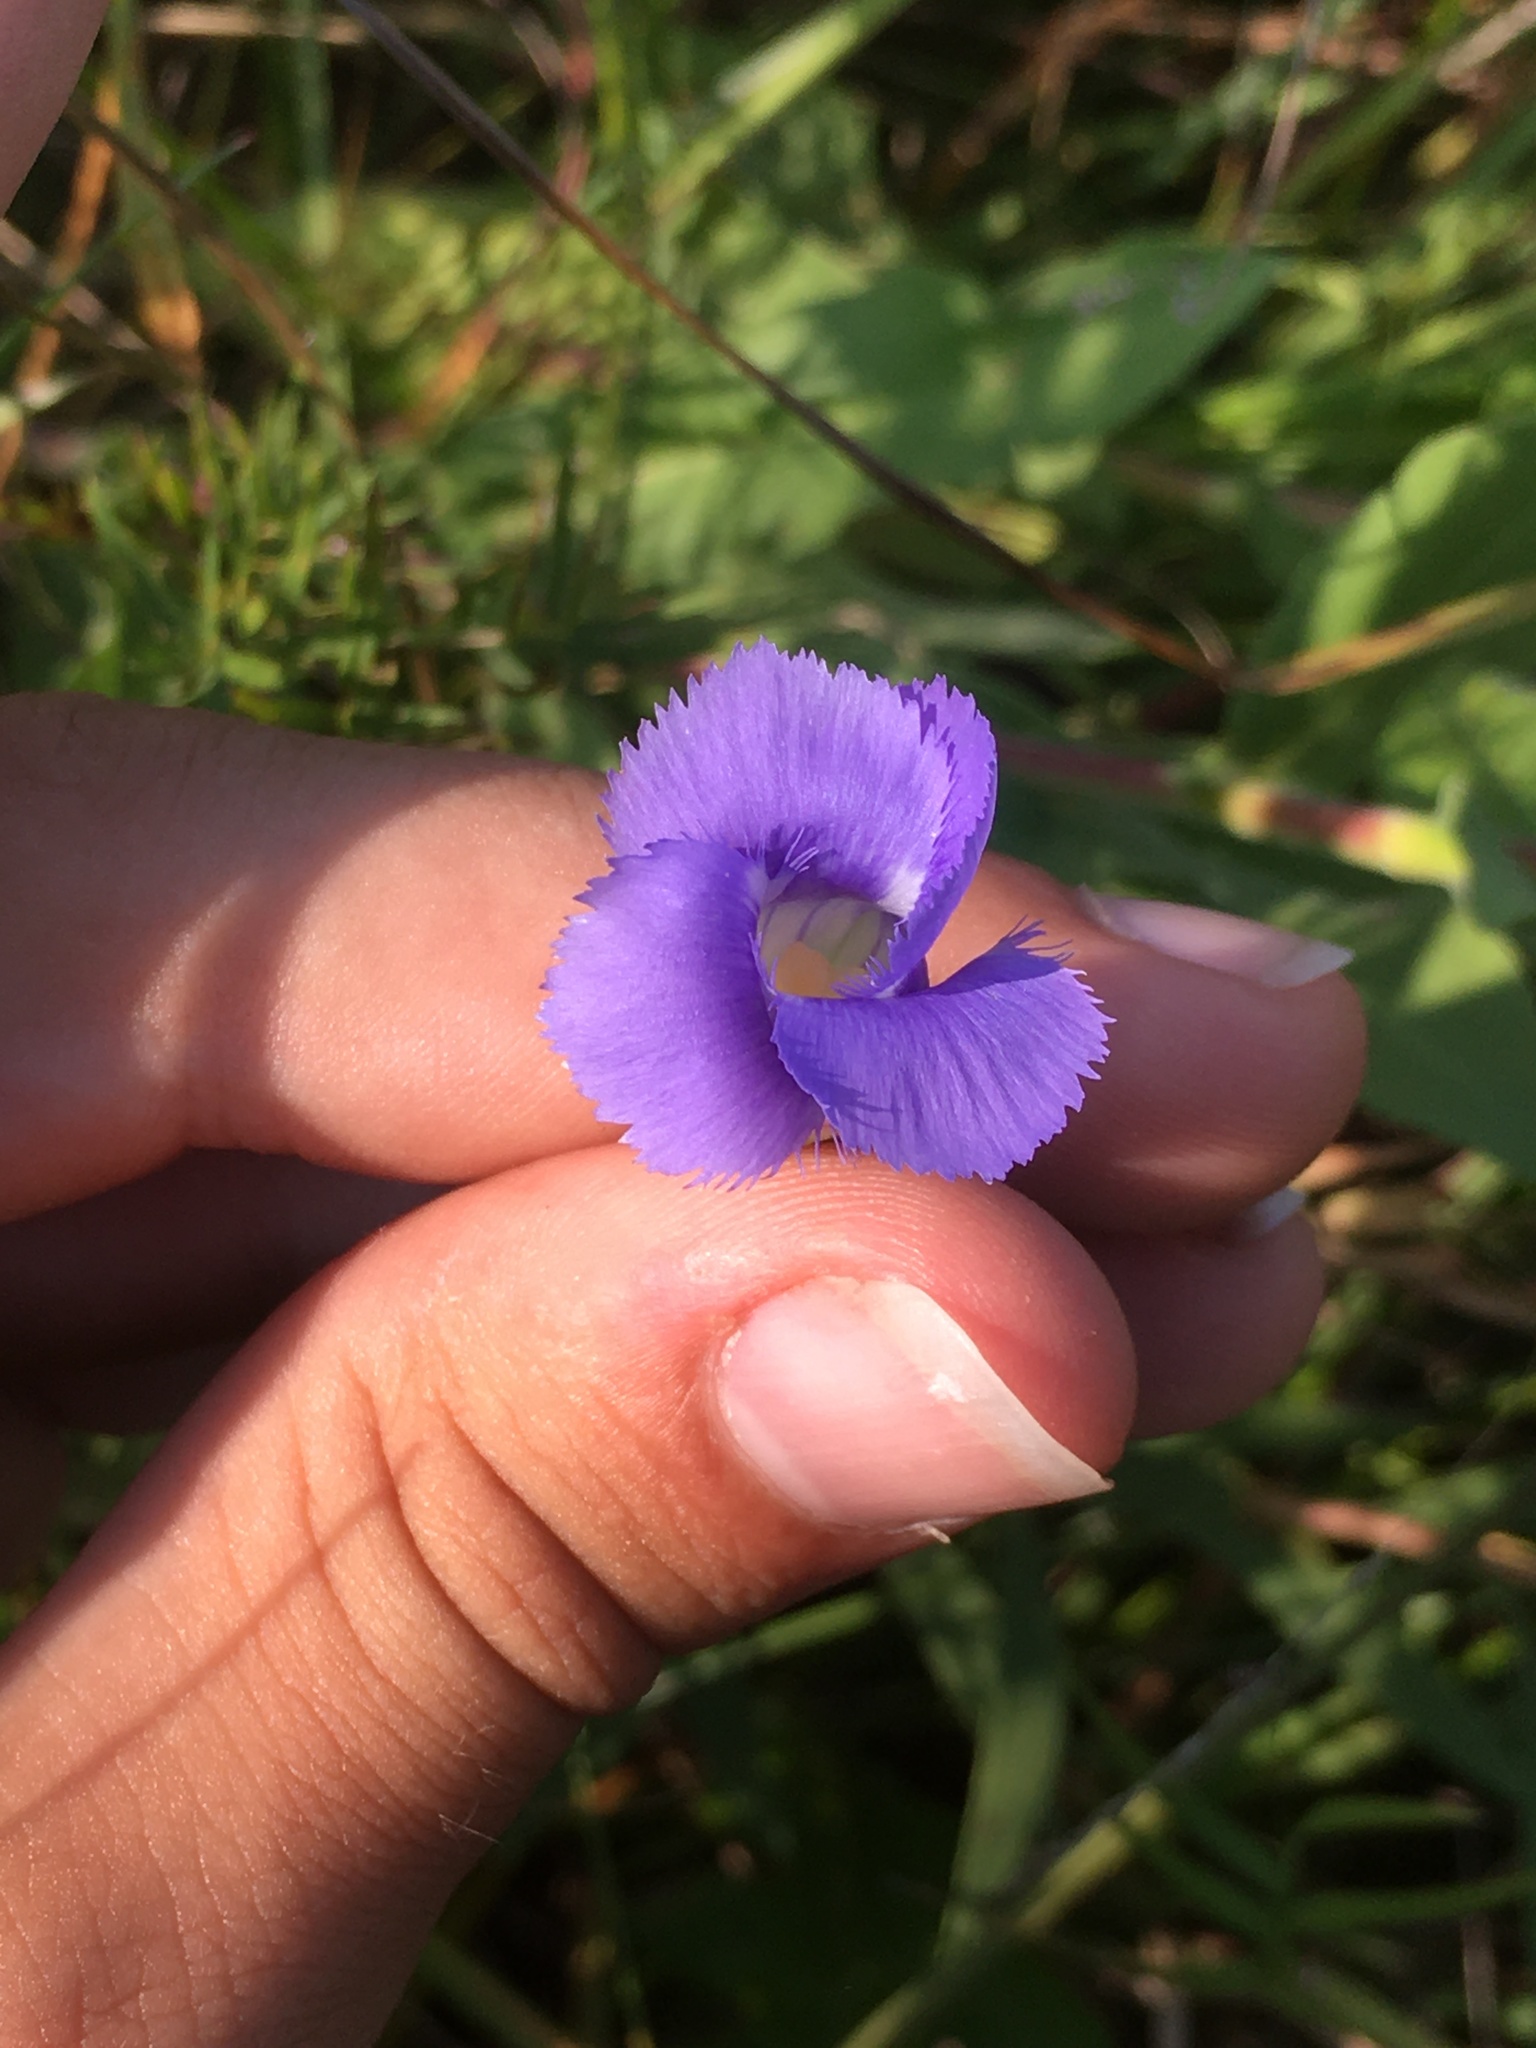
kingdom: Plantae
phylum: Tracheophyta
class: Magnoliopsida
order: Gentianales
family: Gentianaceae
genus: Gentianopsis
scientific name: Gentianopsis virgata
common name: Lesser fringed-gentian
